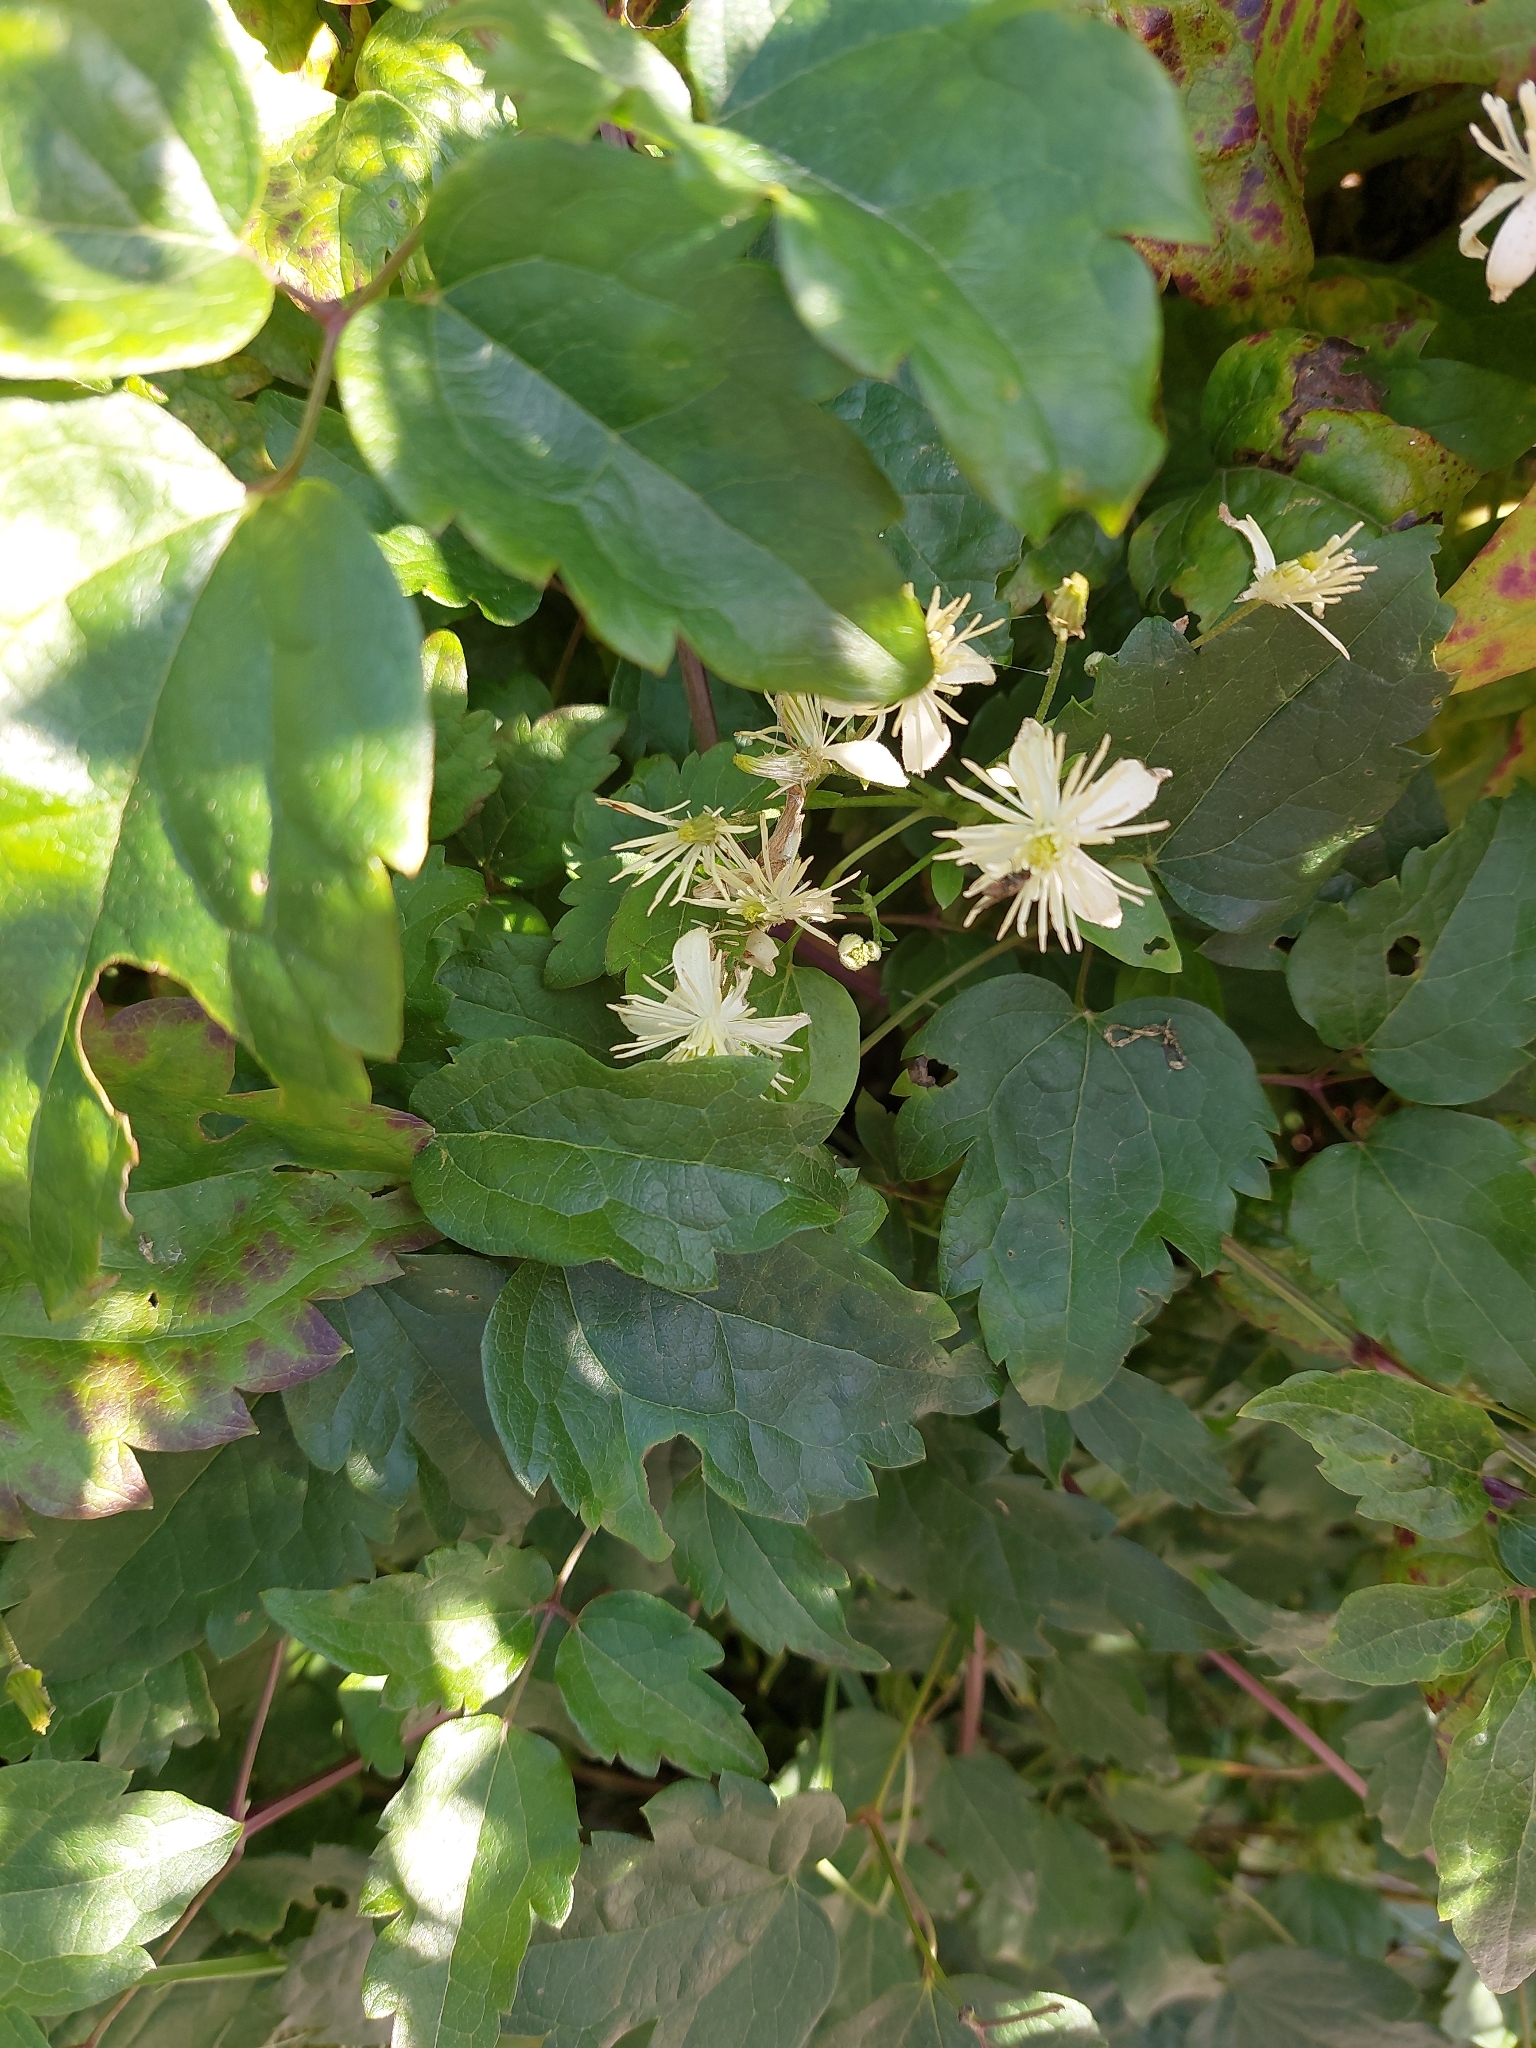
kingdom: Plantae
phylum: Tracheophyta
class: Magnoliopsida
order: Ranunculales
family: Ranunculaceae
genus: Clematis
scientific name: Clematis vitalba
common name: Evergreen clematis
